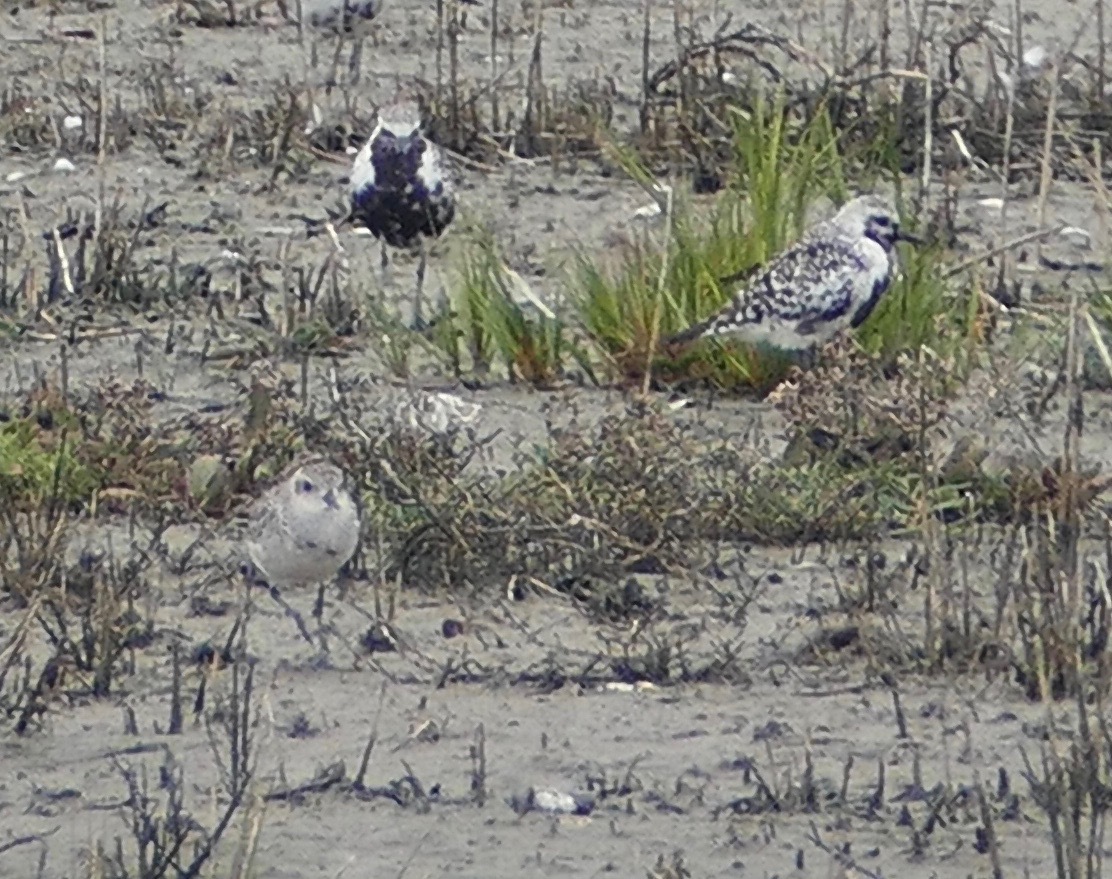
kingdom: Animalia
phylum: Chordata
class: Aves
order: Charadriiformes
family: Charadriidae
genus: Pluvialis
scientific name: Pluvialis squatarola
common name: Grey plover
